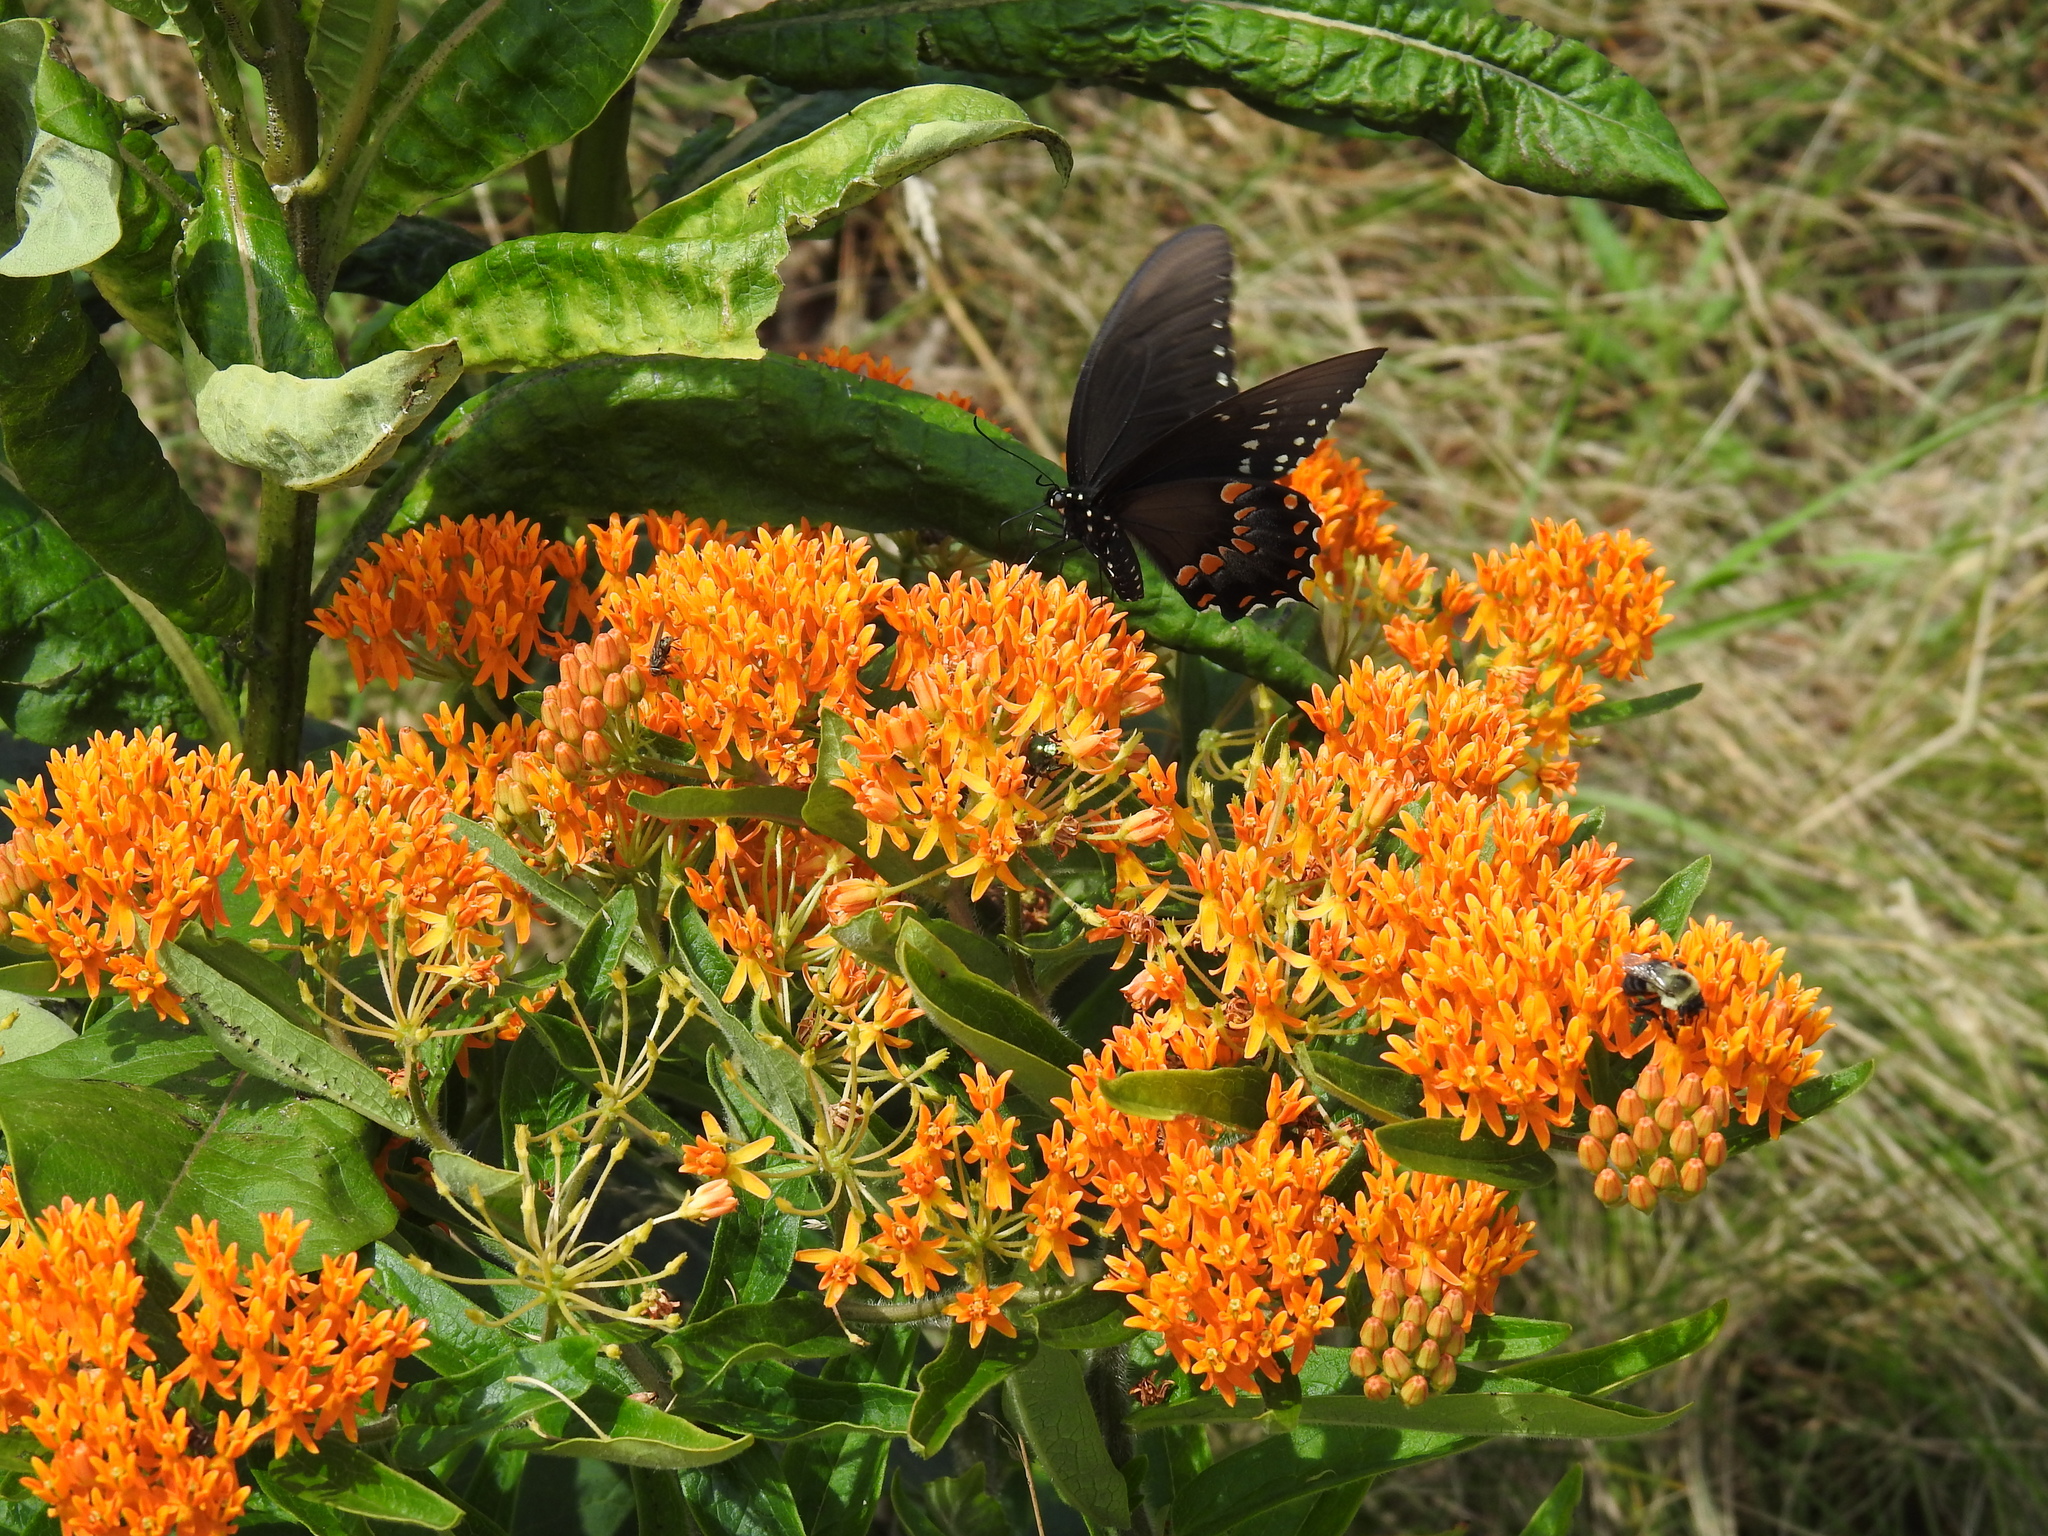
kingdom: Animalia
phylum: Arthropoda
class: Insecta
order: Lepidoptera
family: Papilionidae
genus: Papilio
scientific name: Papilio troilus
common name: Spicebush swallowtail
